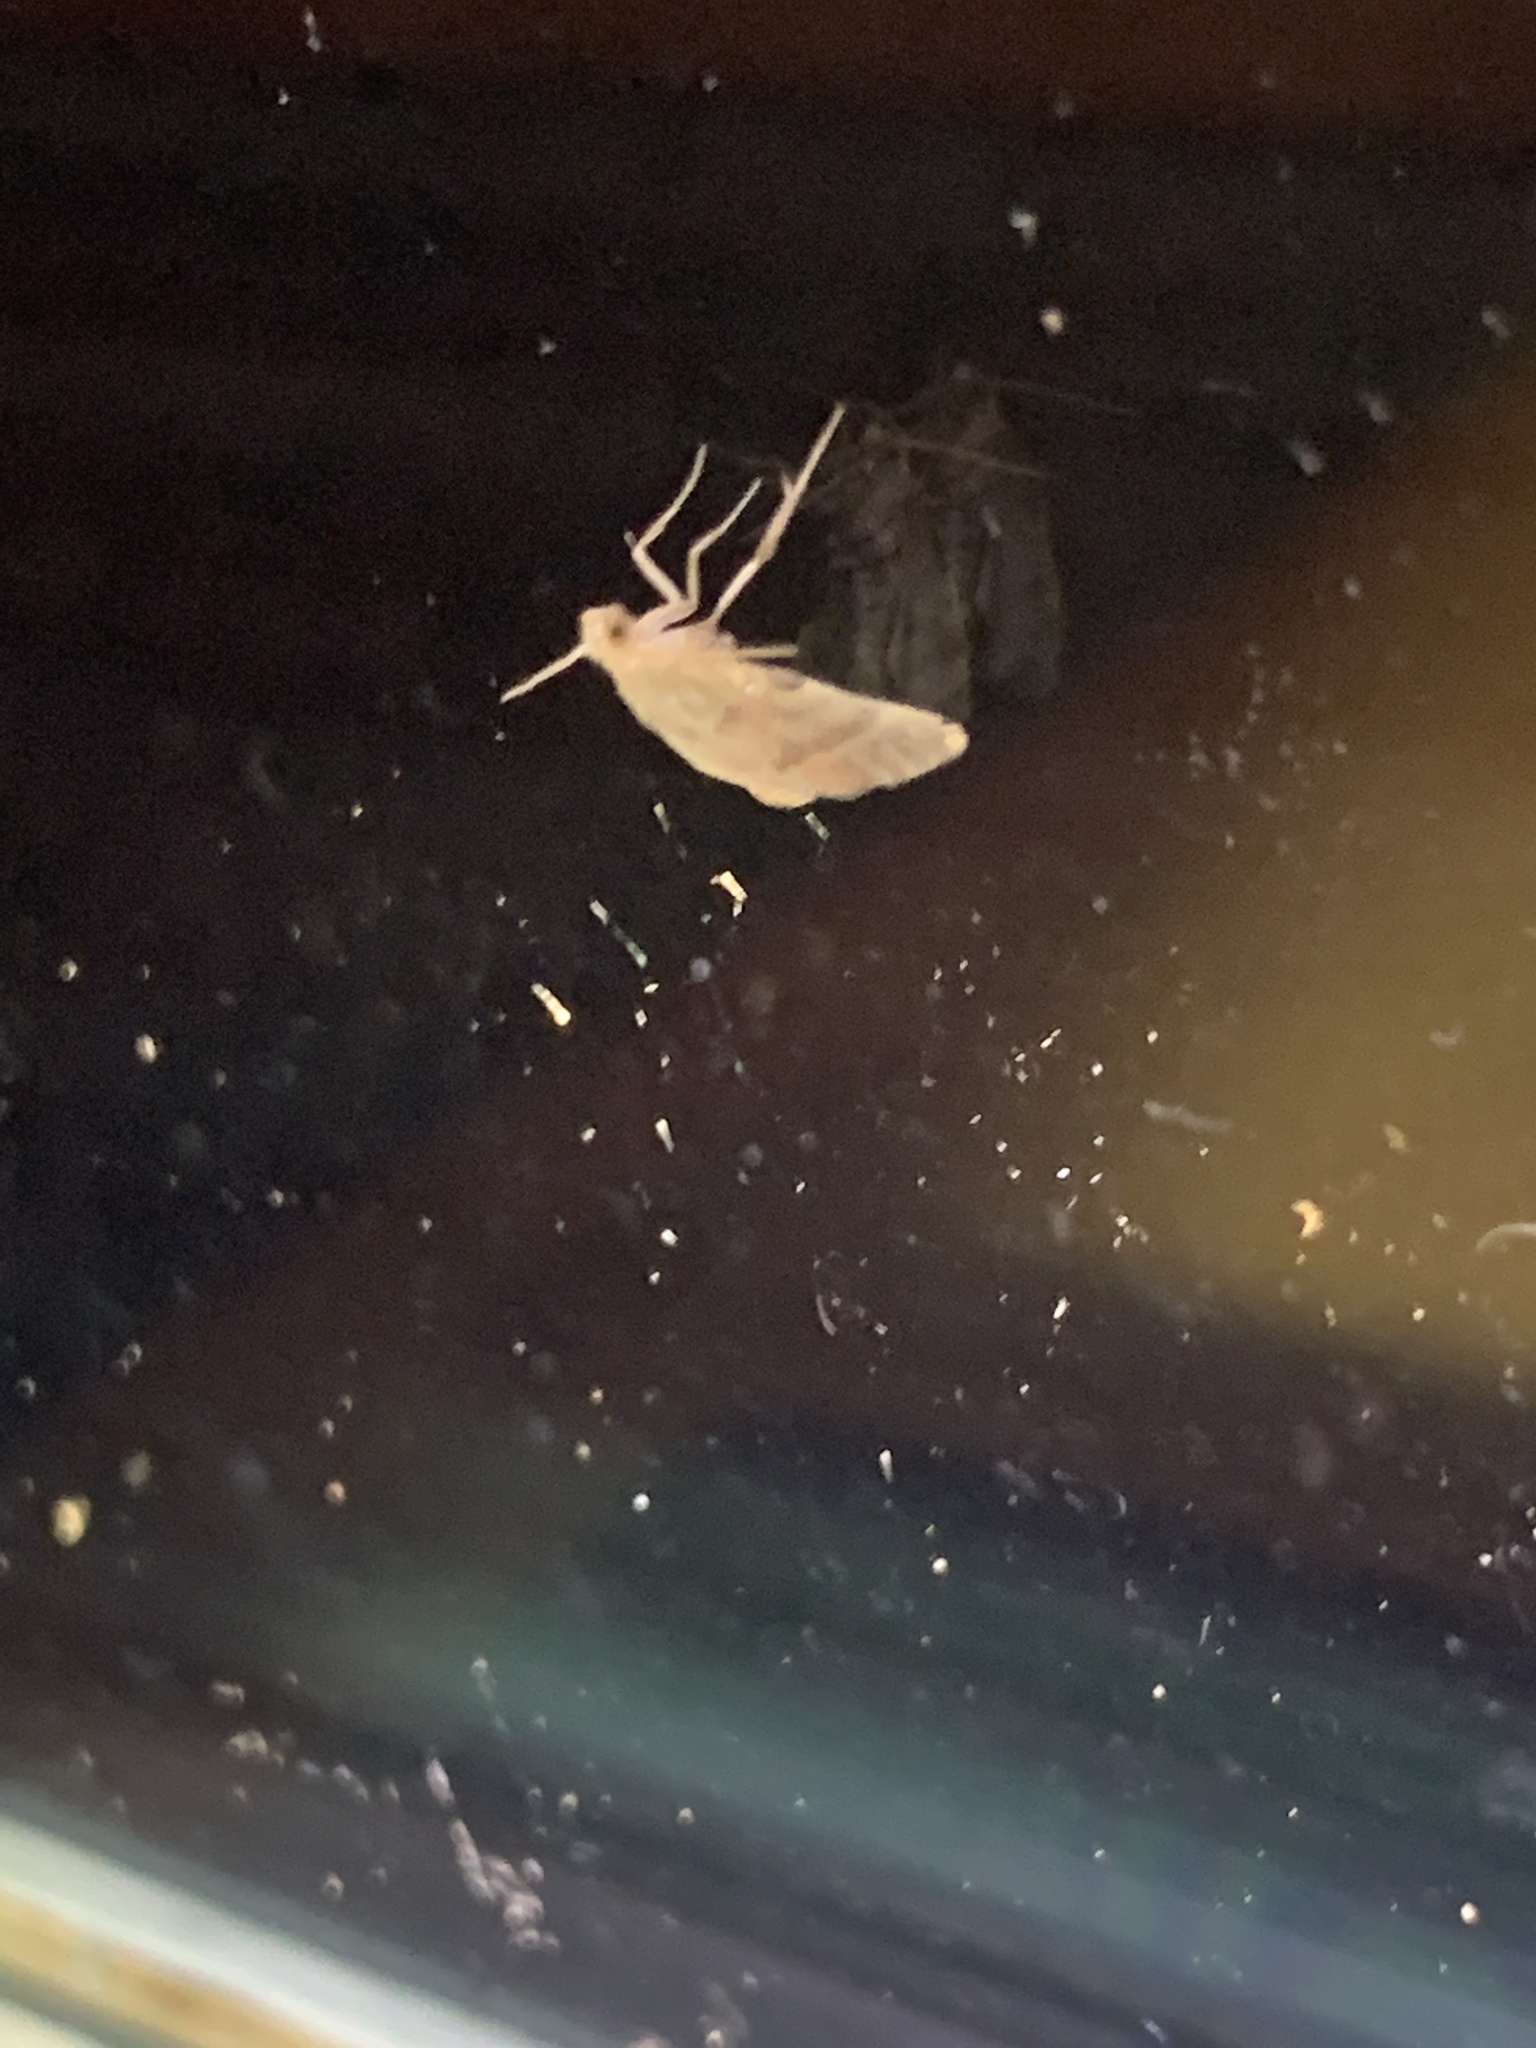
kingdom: Animalia
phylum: Arthropoda
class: Insecta
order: Lepidoptera
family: Pyralidae
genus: Condylolomia
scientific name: Condylolomia participialis
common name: Drab condylolomia moth
